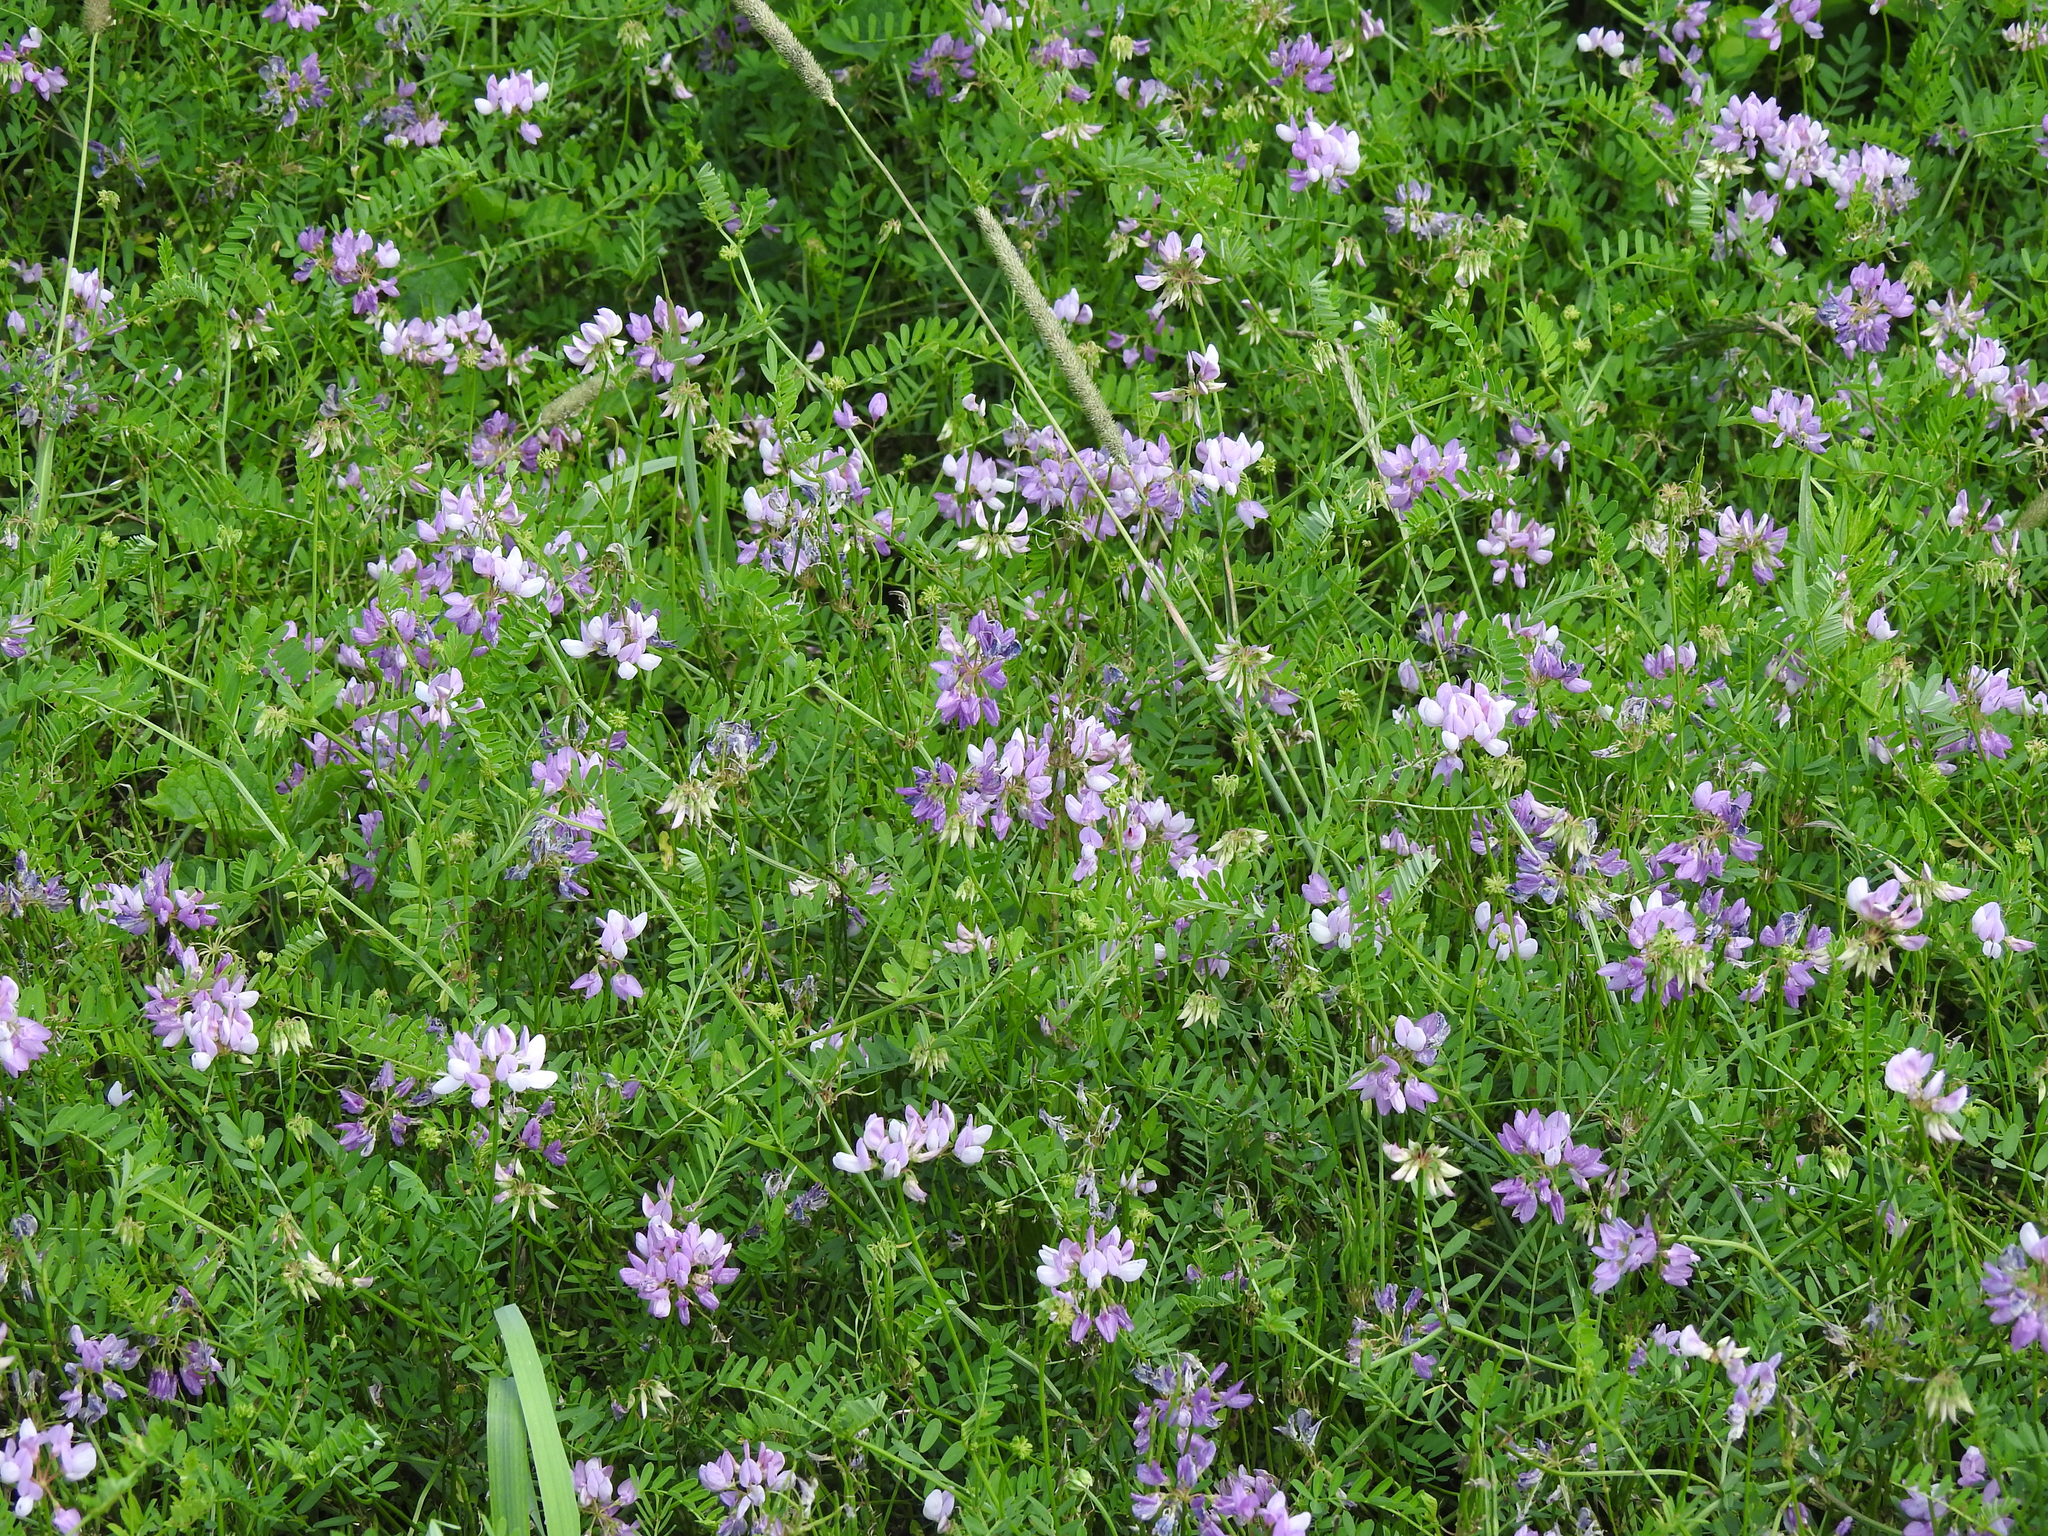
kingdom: Plantae
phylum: Tracheophyta
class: Magnoliopsida
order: Fabales
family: Fabaceae
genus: Coronilla
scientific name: Coronilla varia
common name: Crownvetch
